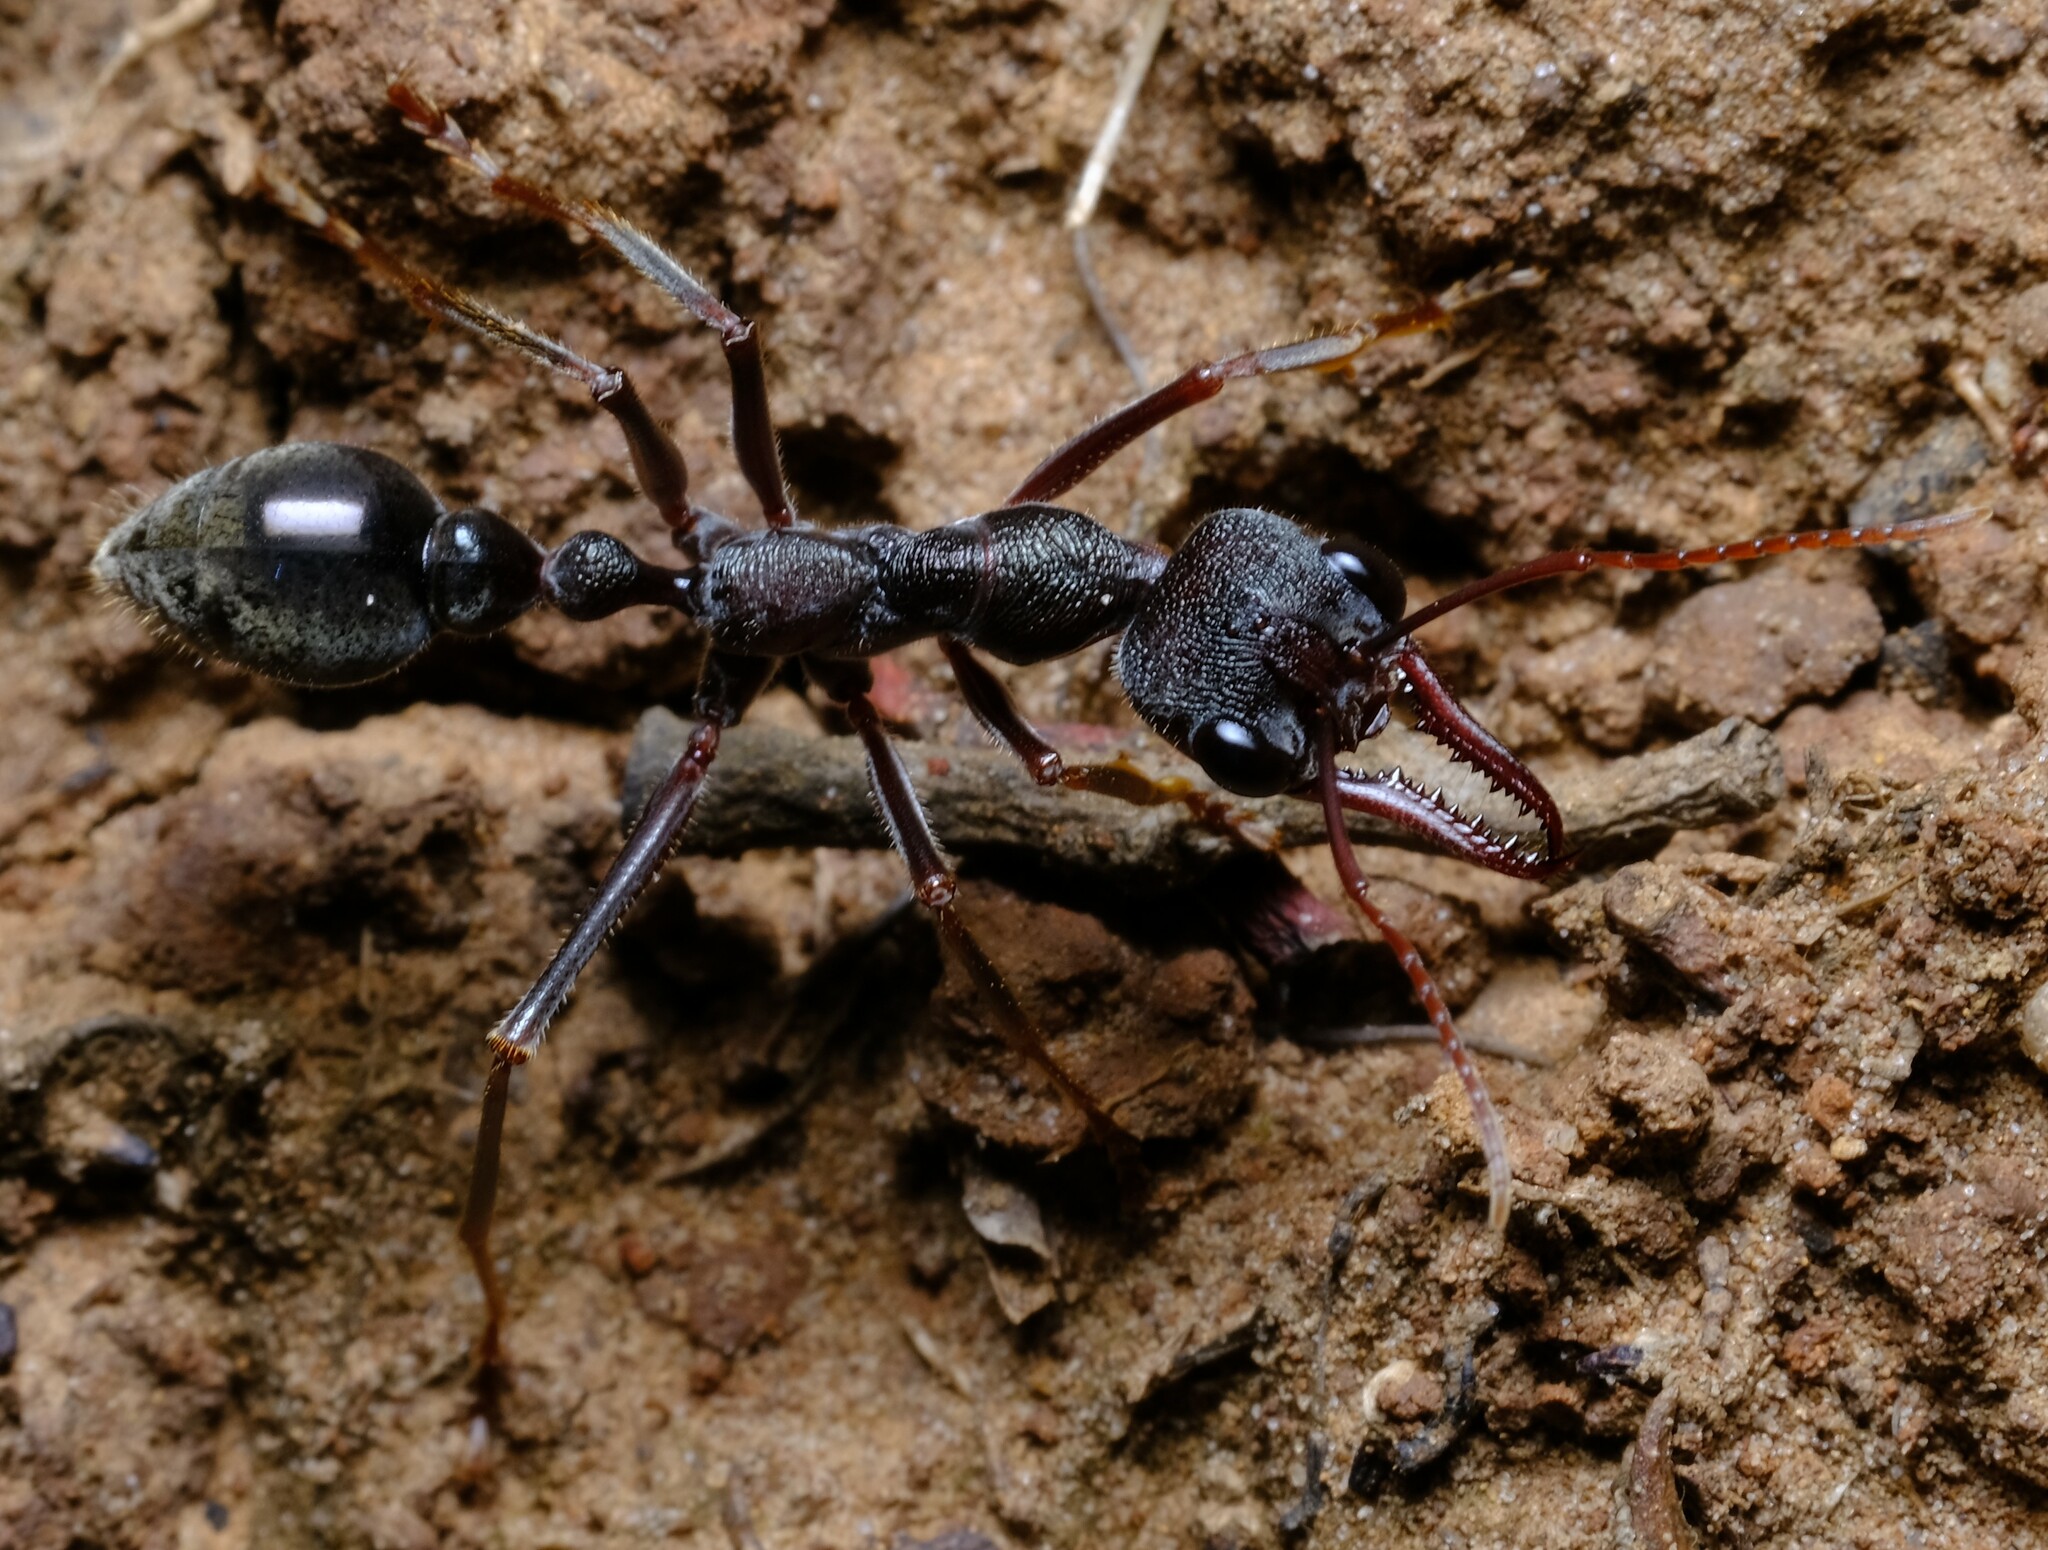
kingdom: Animalia
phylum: Arthropoda
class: Insecta
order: Hymenoptera
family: Formicidae
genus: Myrmecia
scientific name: Myrmecia pyriformis
